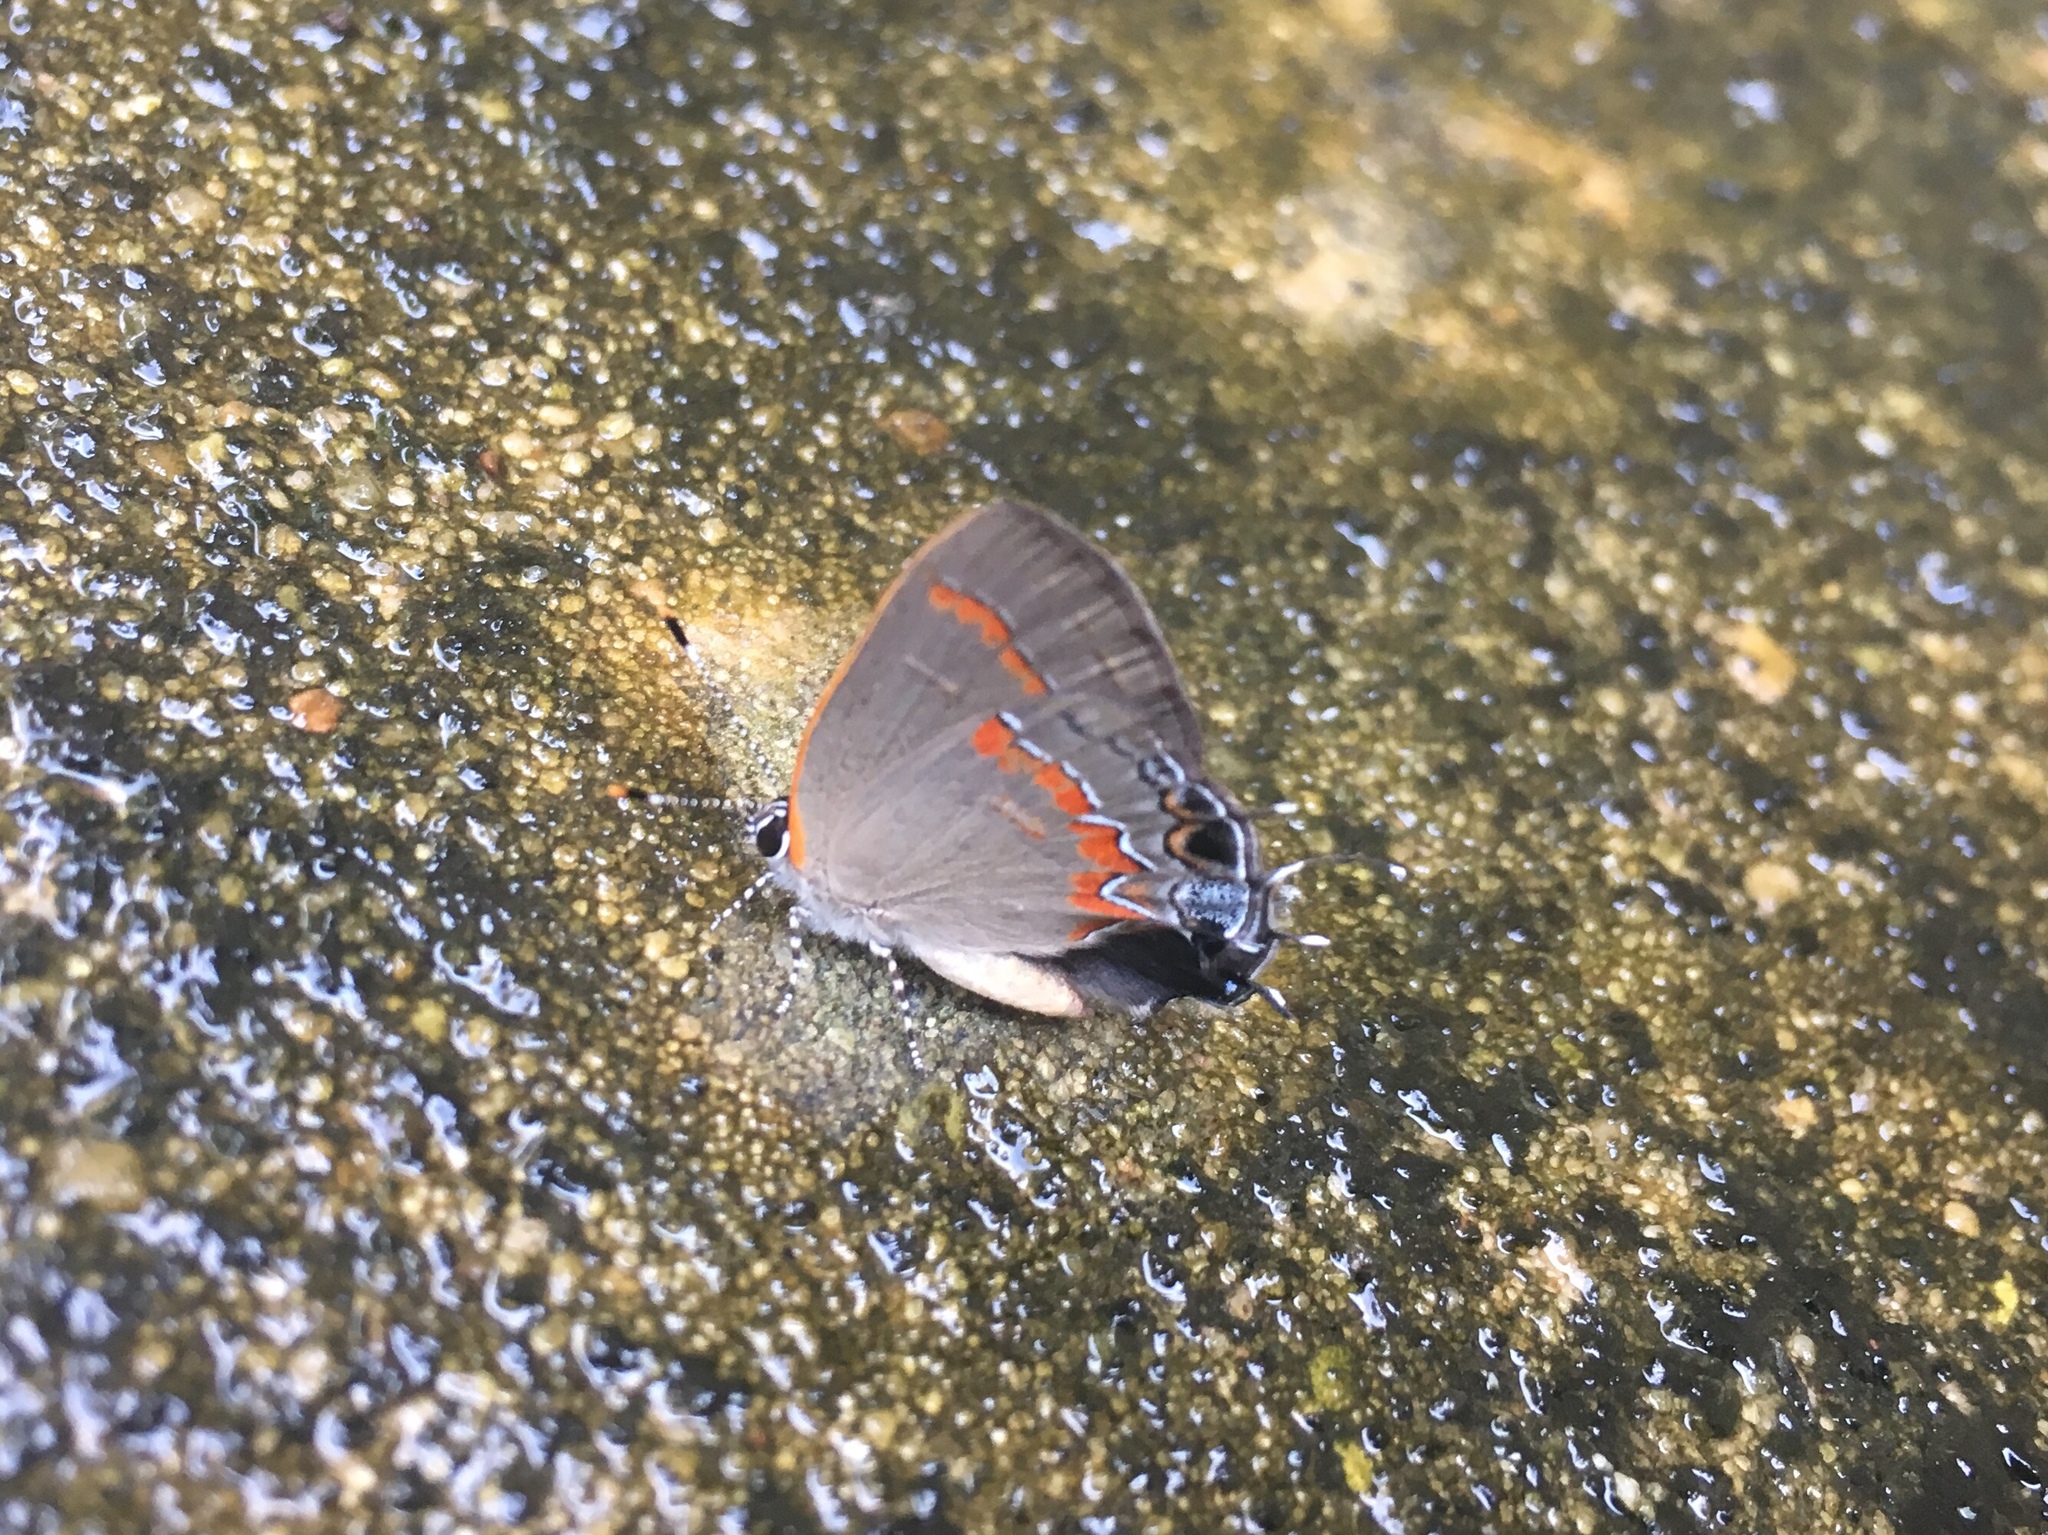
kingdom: Animalia
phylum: Arthropoda
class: Insecta
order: Lepidoptera
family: Lycaenidae
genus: Calycopis
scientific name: Calycopis cecrops
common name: Red-banded hairstreak
